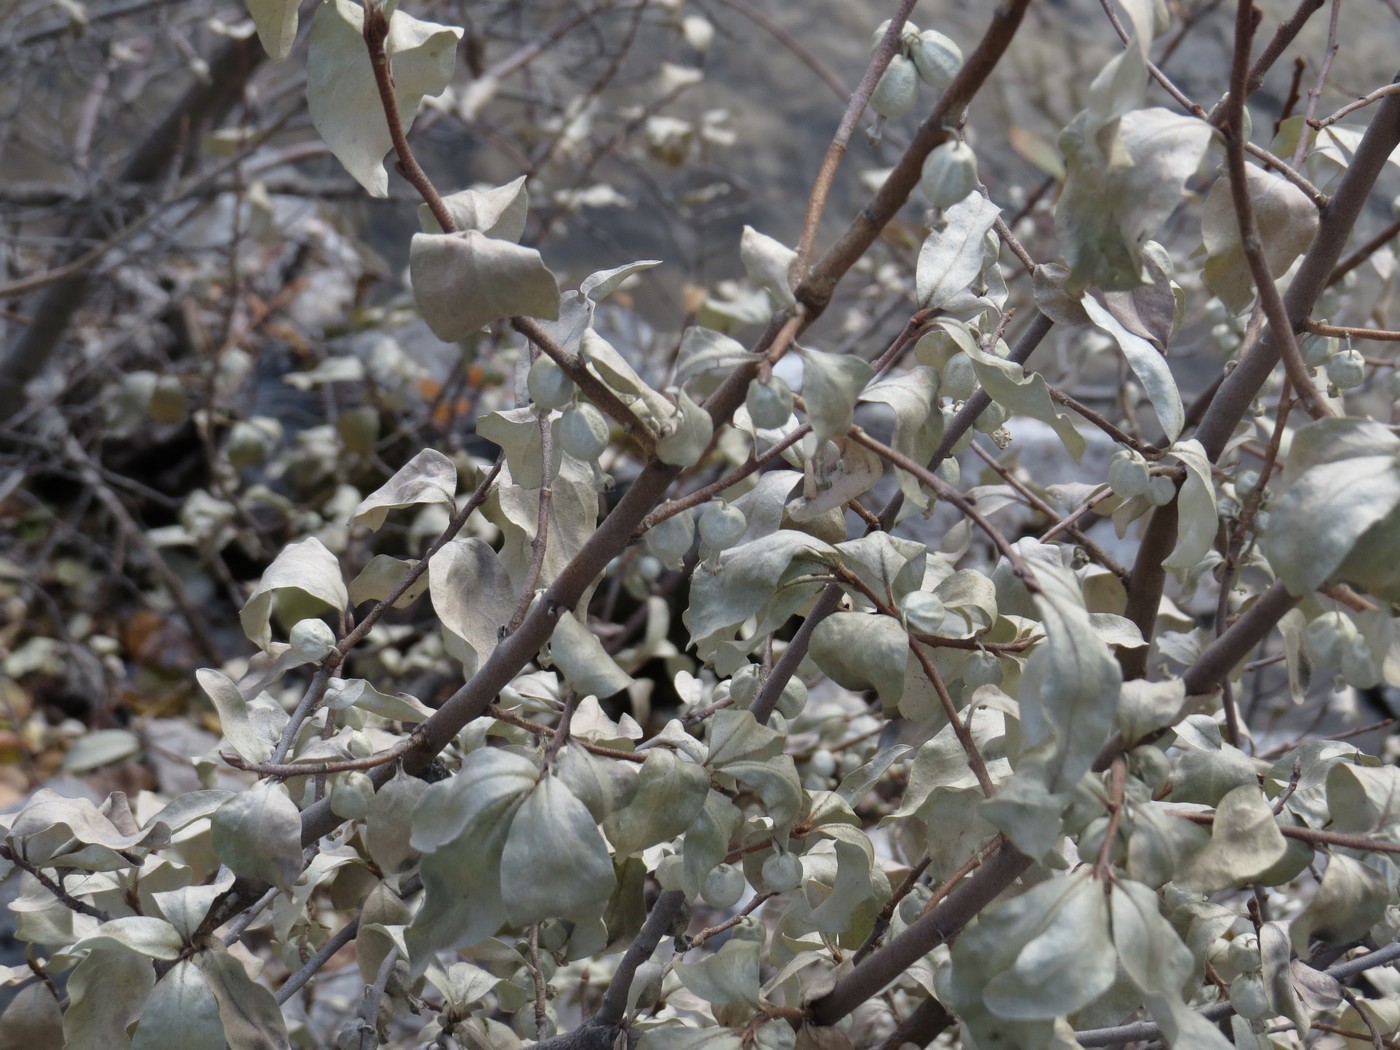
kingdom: Plantae
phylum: Tracheophyta
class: Magnoliopsida
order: Rosales
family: Elaeagnaceae
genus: Elaeagnus
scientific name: Elaeagnus commutata
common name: Silverberry
